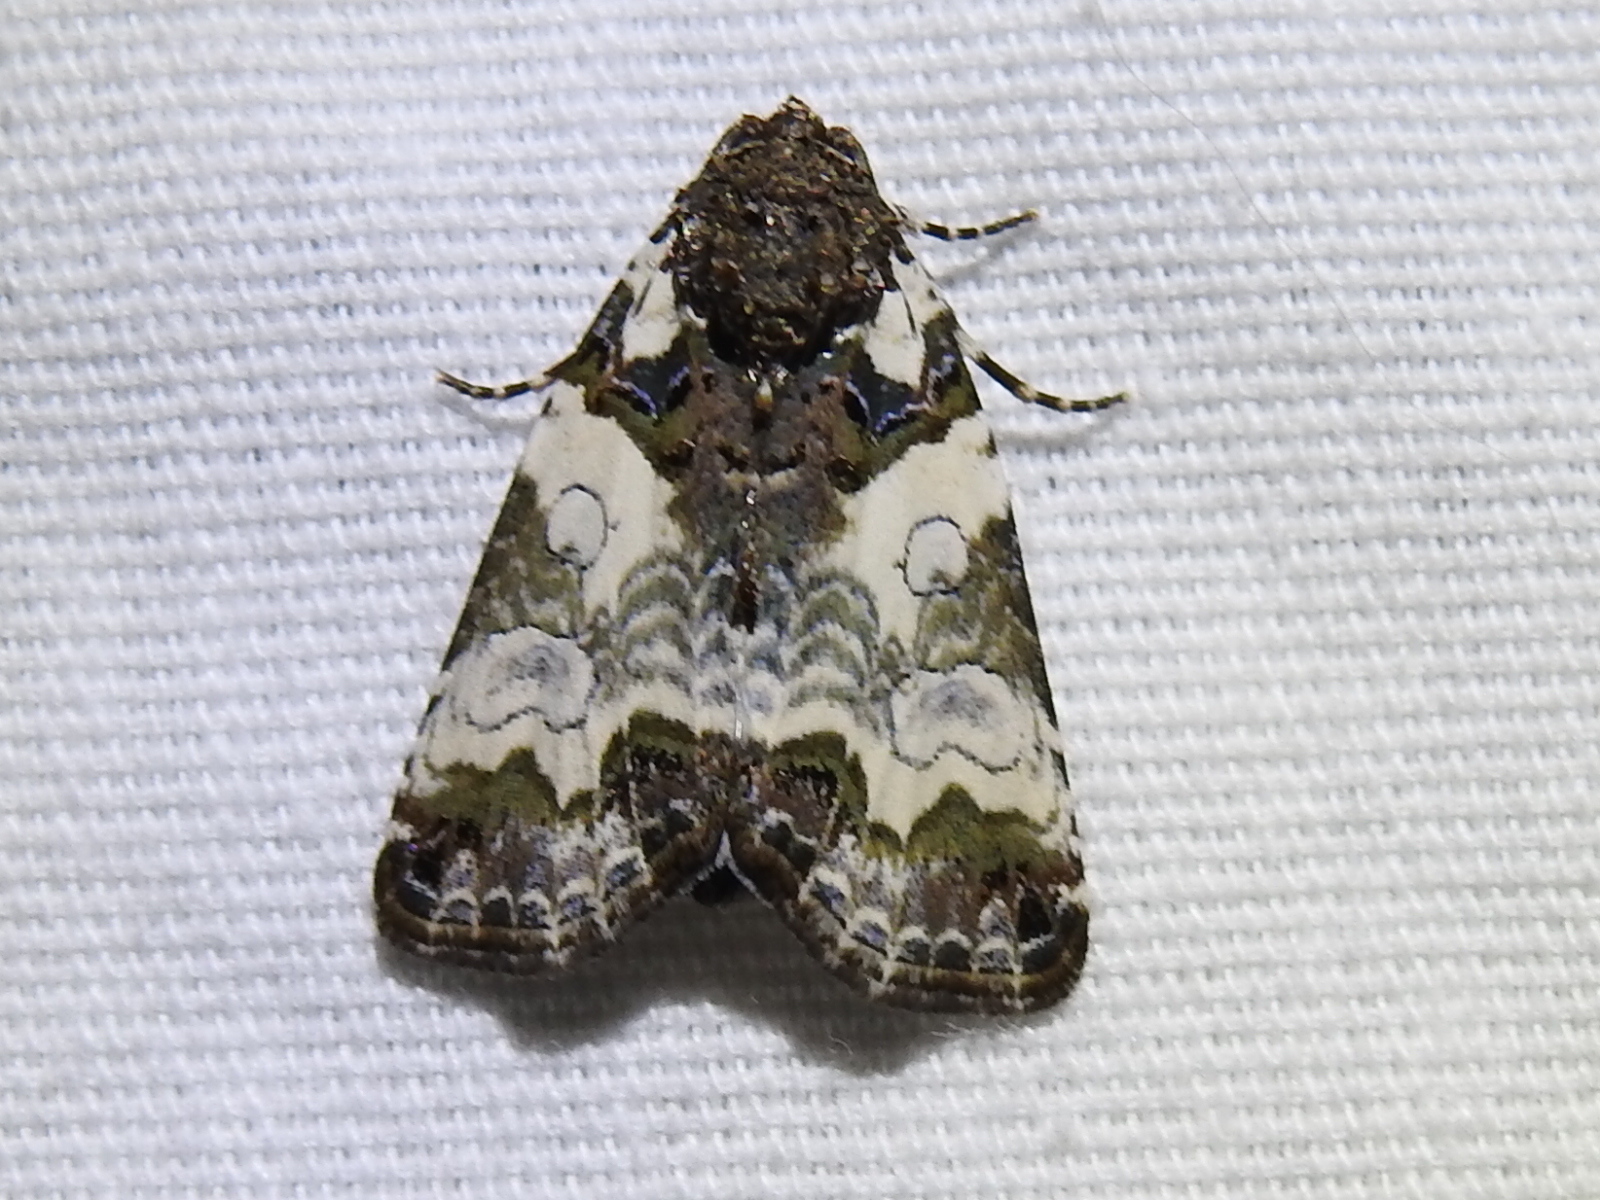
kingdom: Animalia
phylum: Arthropoda
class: Insecta
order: Lepidoptera
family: Noctuidae
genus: Cerma
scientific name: Cerma cerintha
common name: Tufted bird-dropping moth
